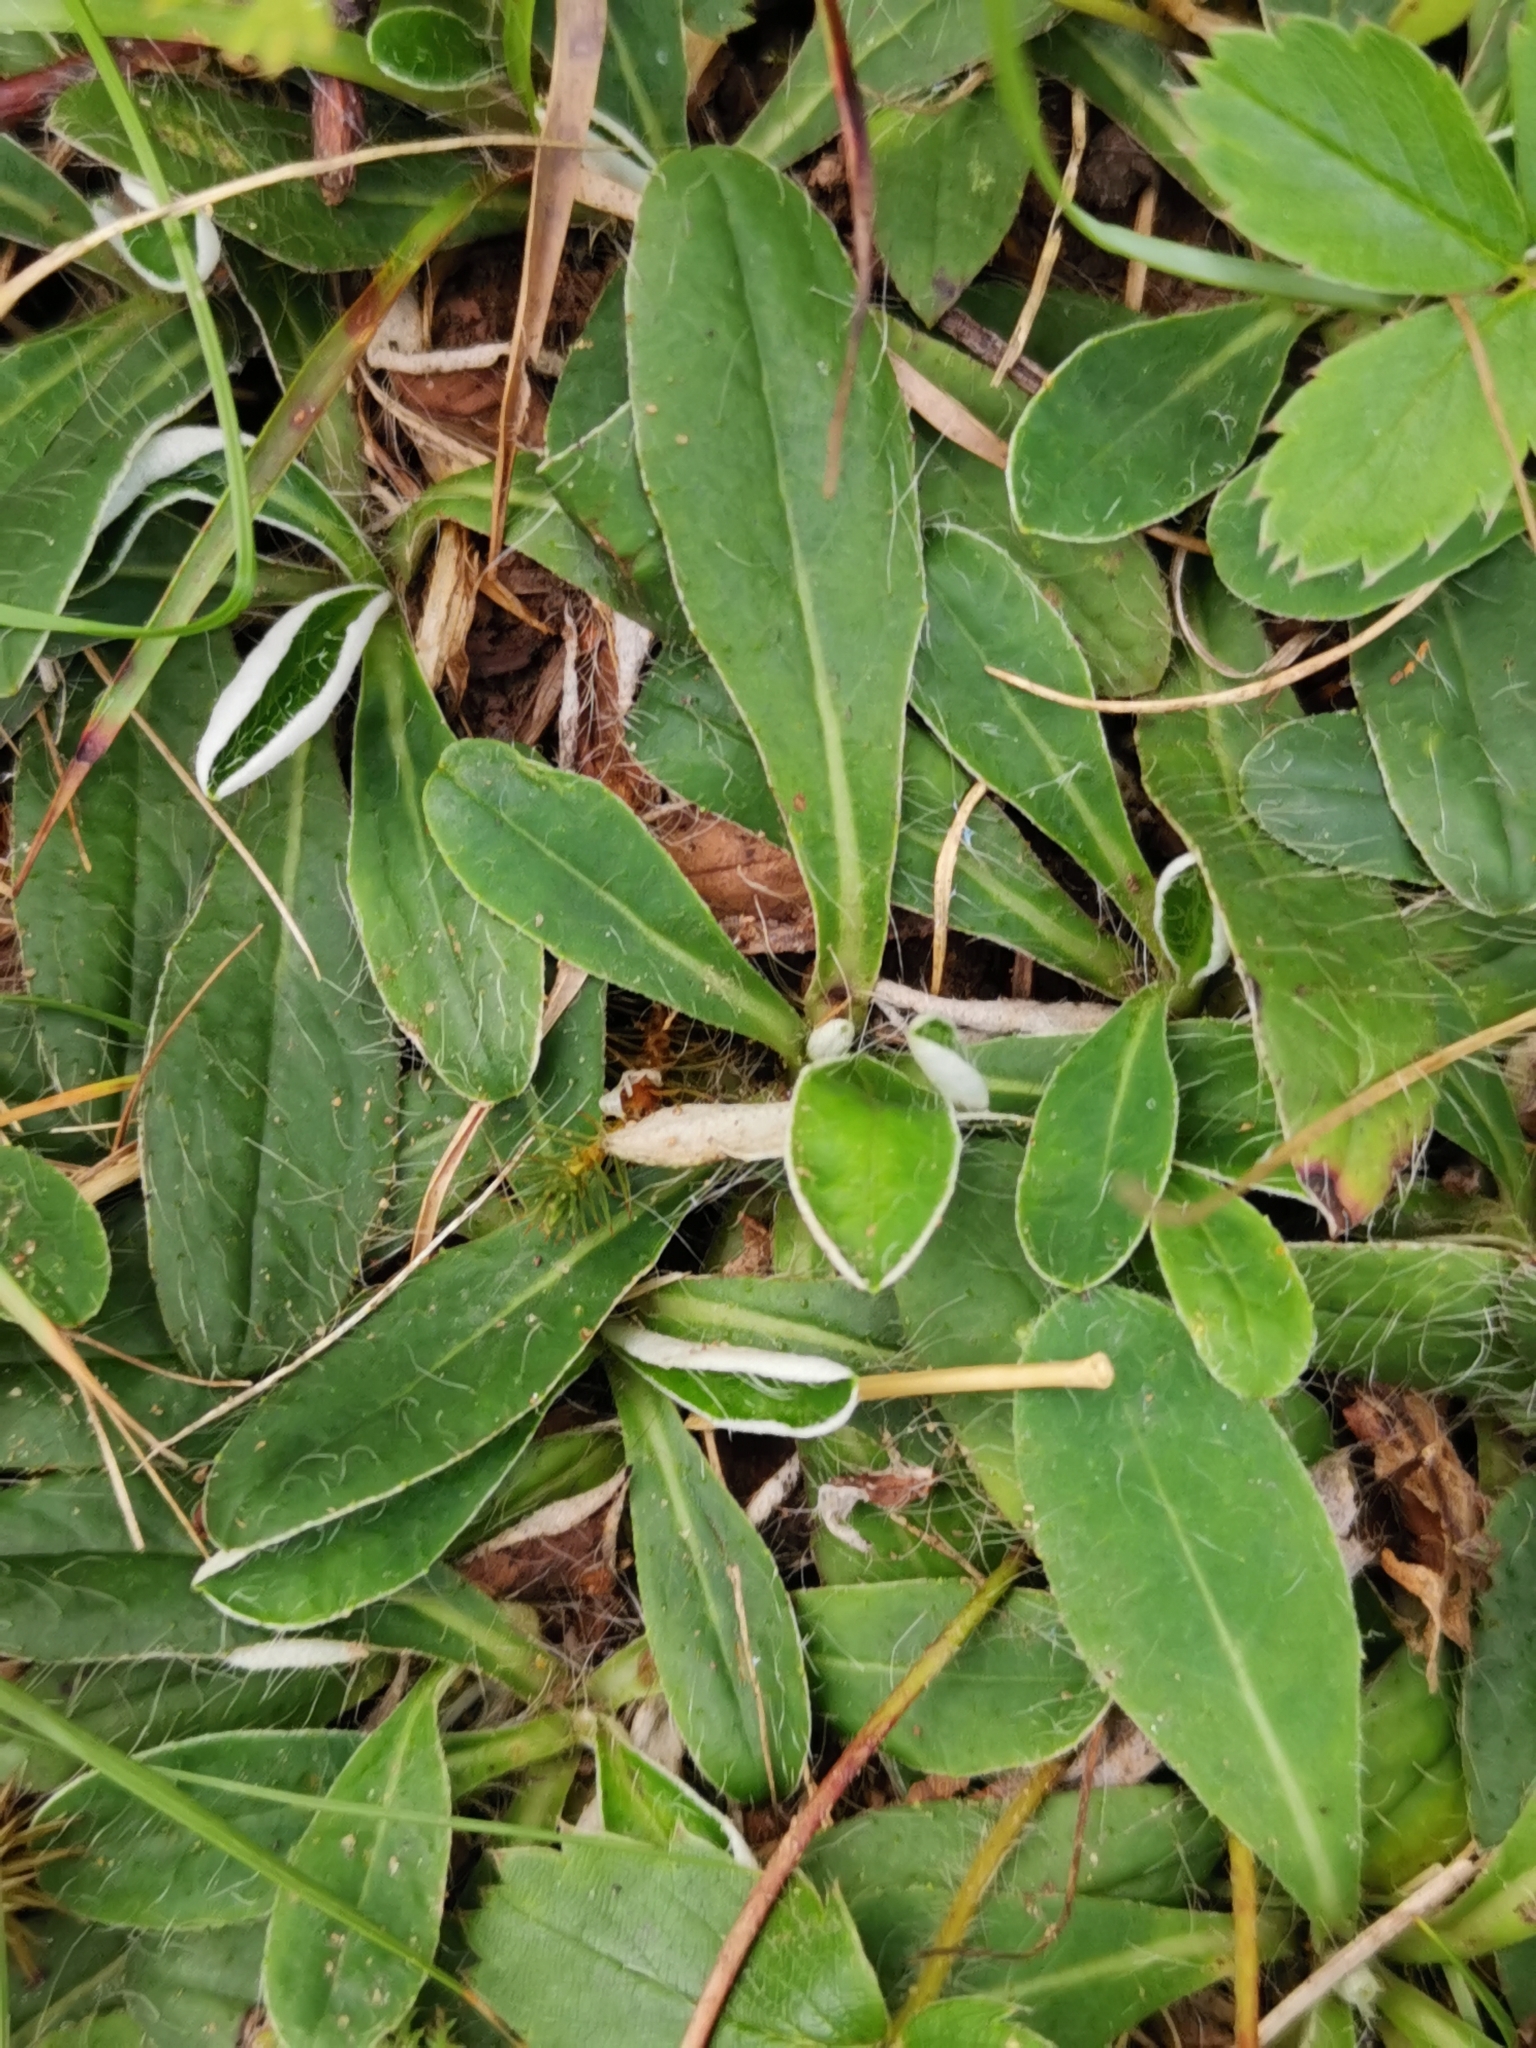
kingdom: Plantae
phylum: Tracheophyta
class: Magnoliopsida
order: Asterales
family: Asteraceae
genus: Pilosella
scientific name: Pilosella officinarum
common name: Mouse-ear hawkweed
